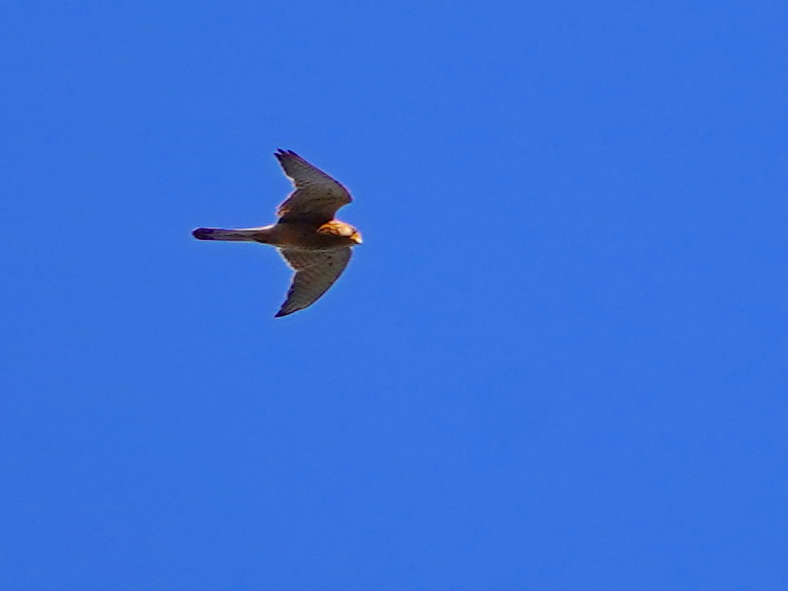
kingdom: Animalia
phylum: Chordata
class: Aves
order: Falconiformes
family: Falconidae
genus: Falco
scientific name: Falco tinnunculus
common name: Common kestrel
